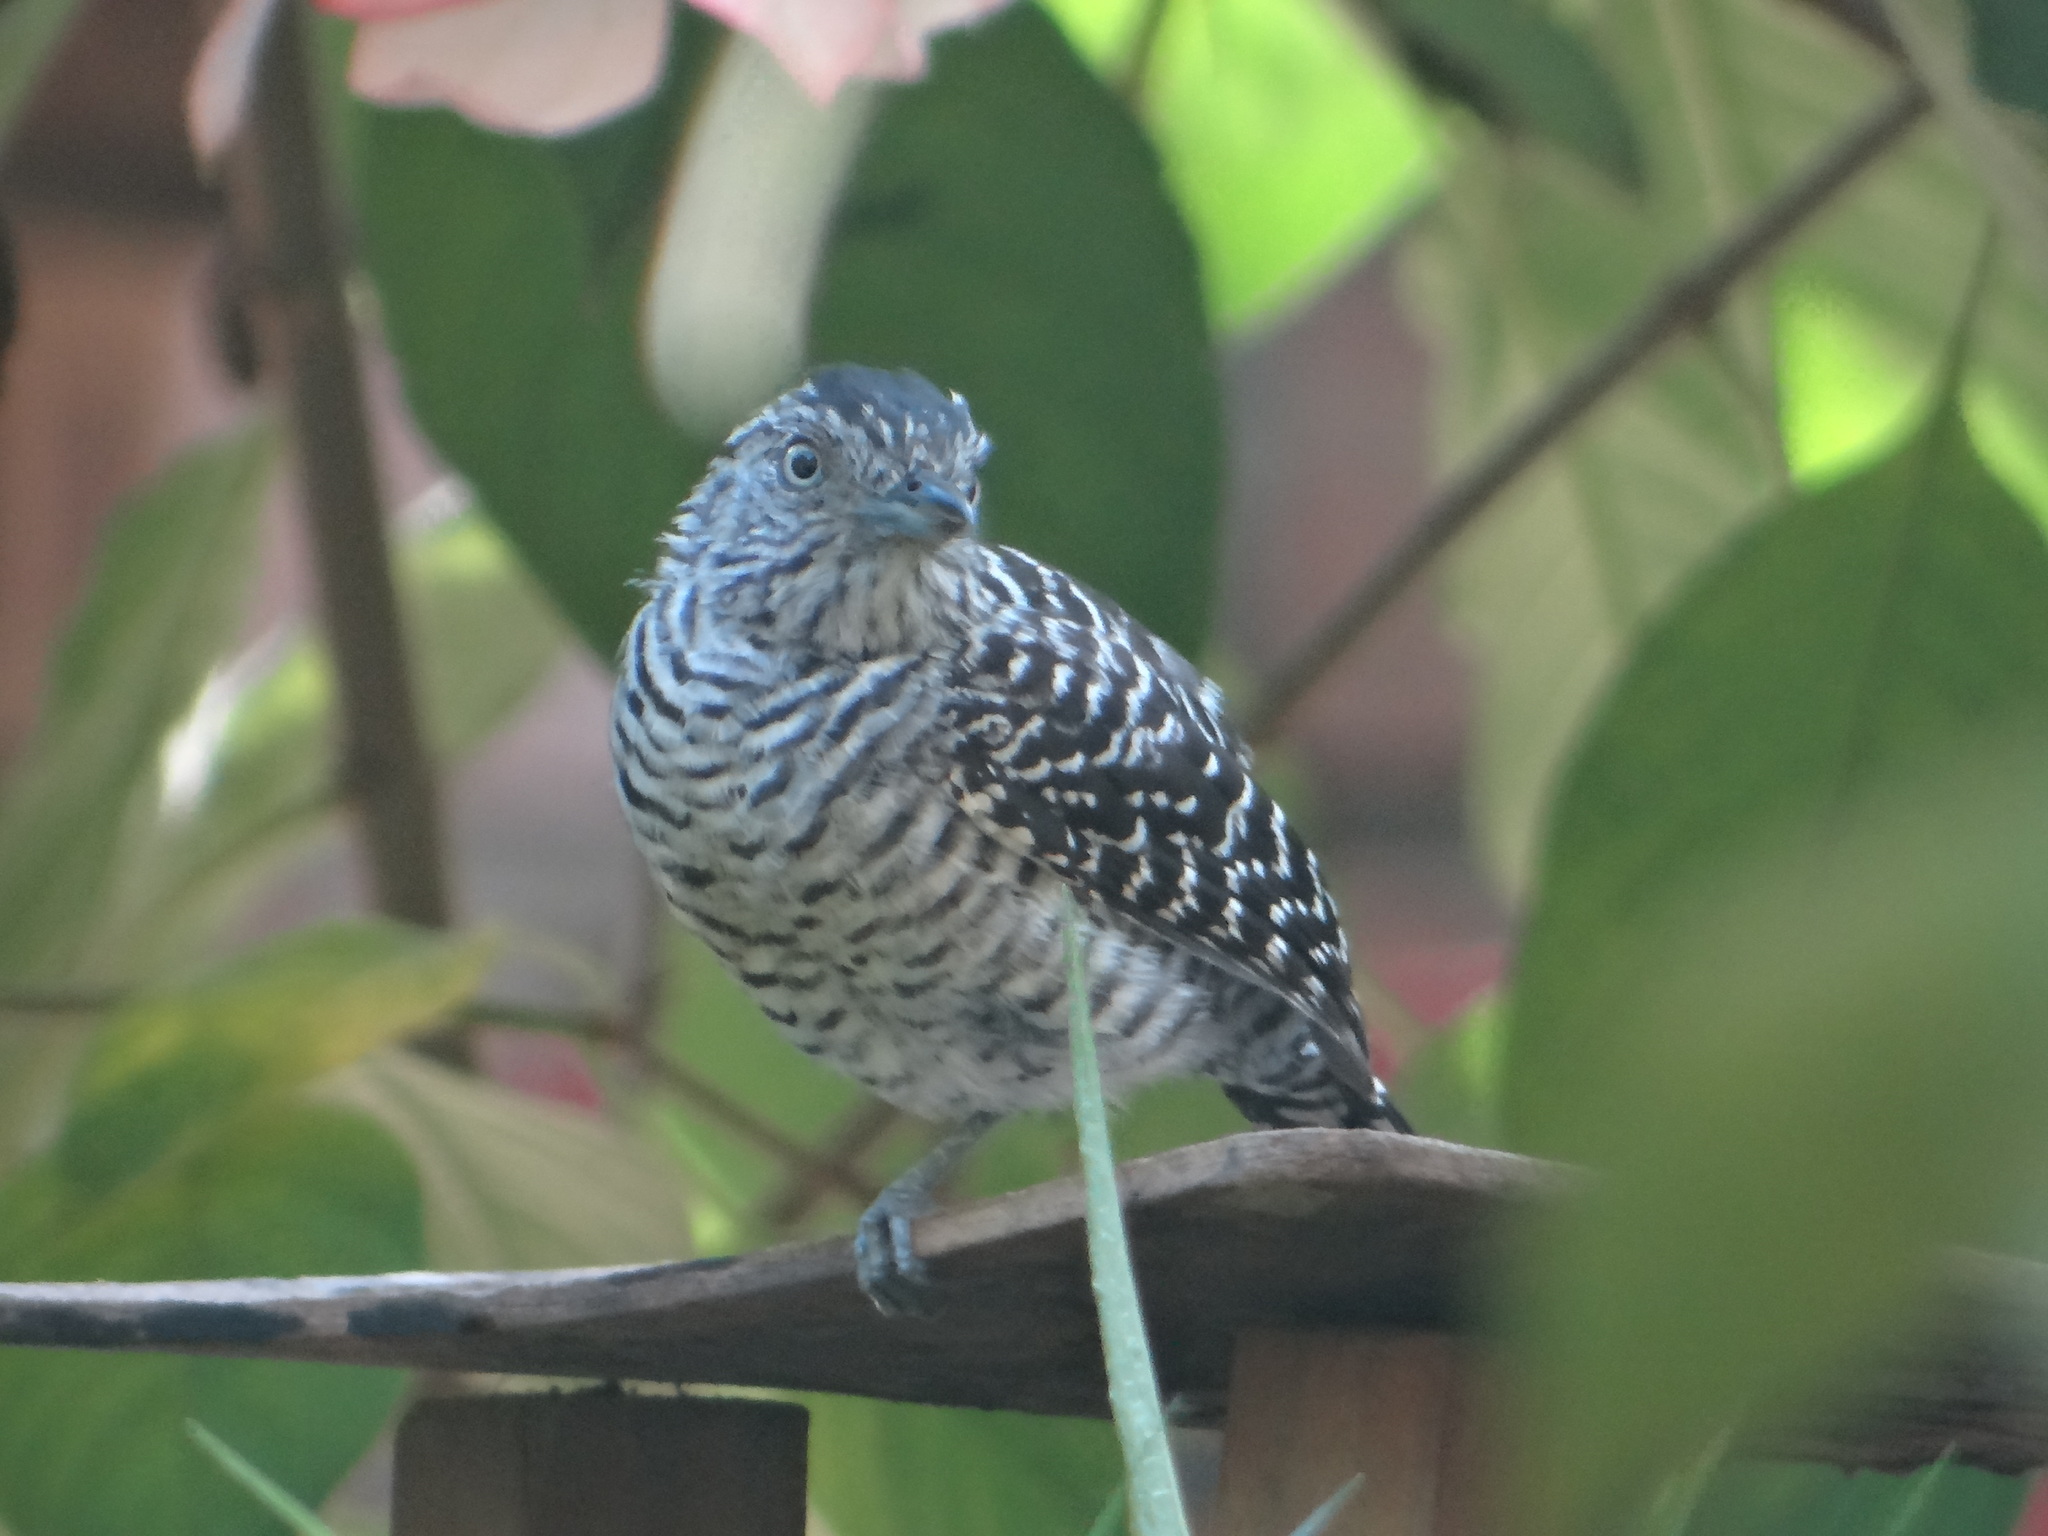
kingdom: Animalia
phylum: Chordata
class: Aves
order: Passeriformes
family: Thamnophilidae
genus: Thamnophilus
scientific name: Thamnophilus doliatus
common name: Barred antshrike
